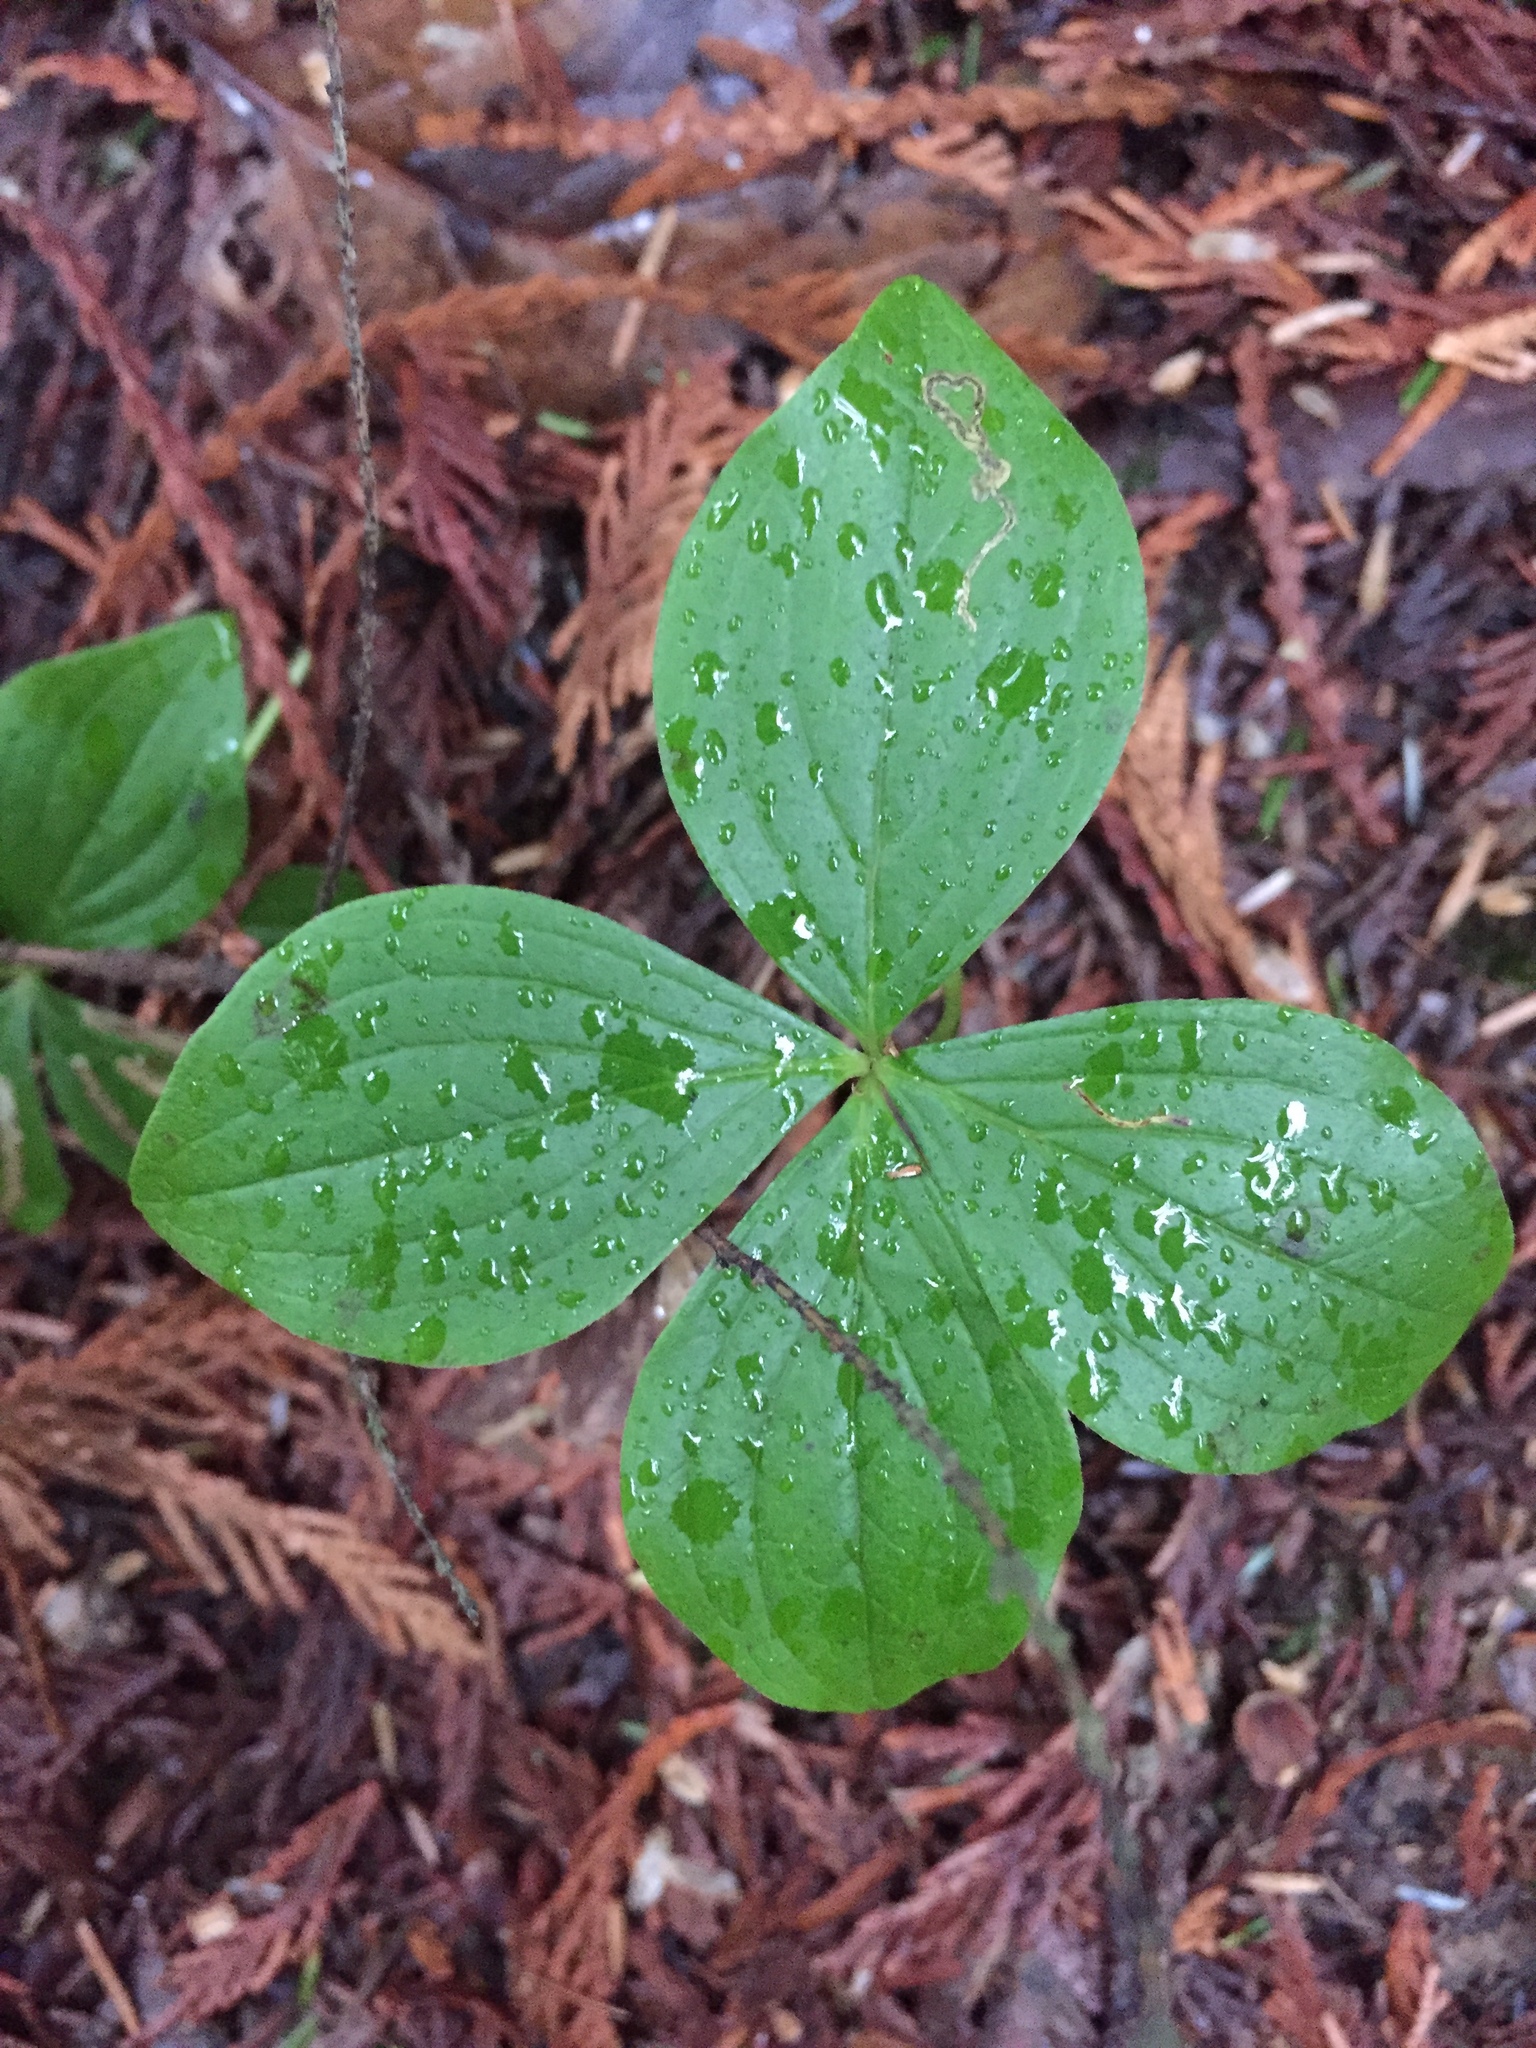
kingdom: Plantae
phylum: Tracheophyta
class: Magnoliopsida
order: Cornales
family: Cornaceae
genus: Cornus
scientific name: Cornus unalaschkensis
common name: Alaska bunchberry
